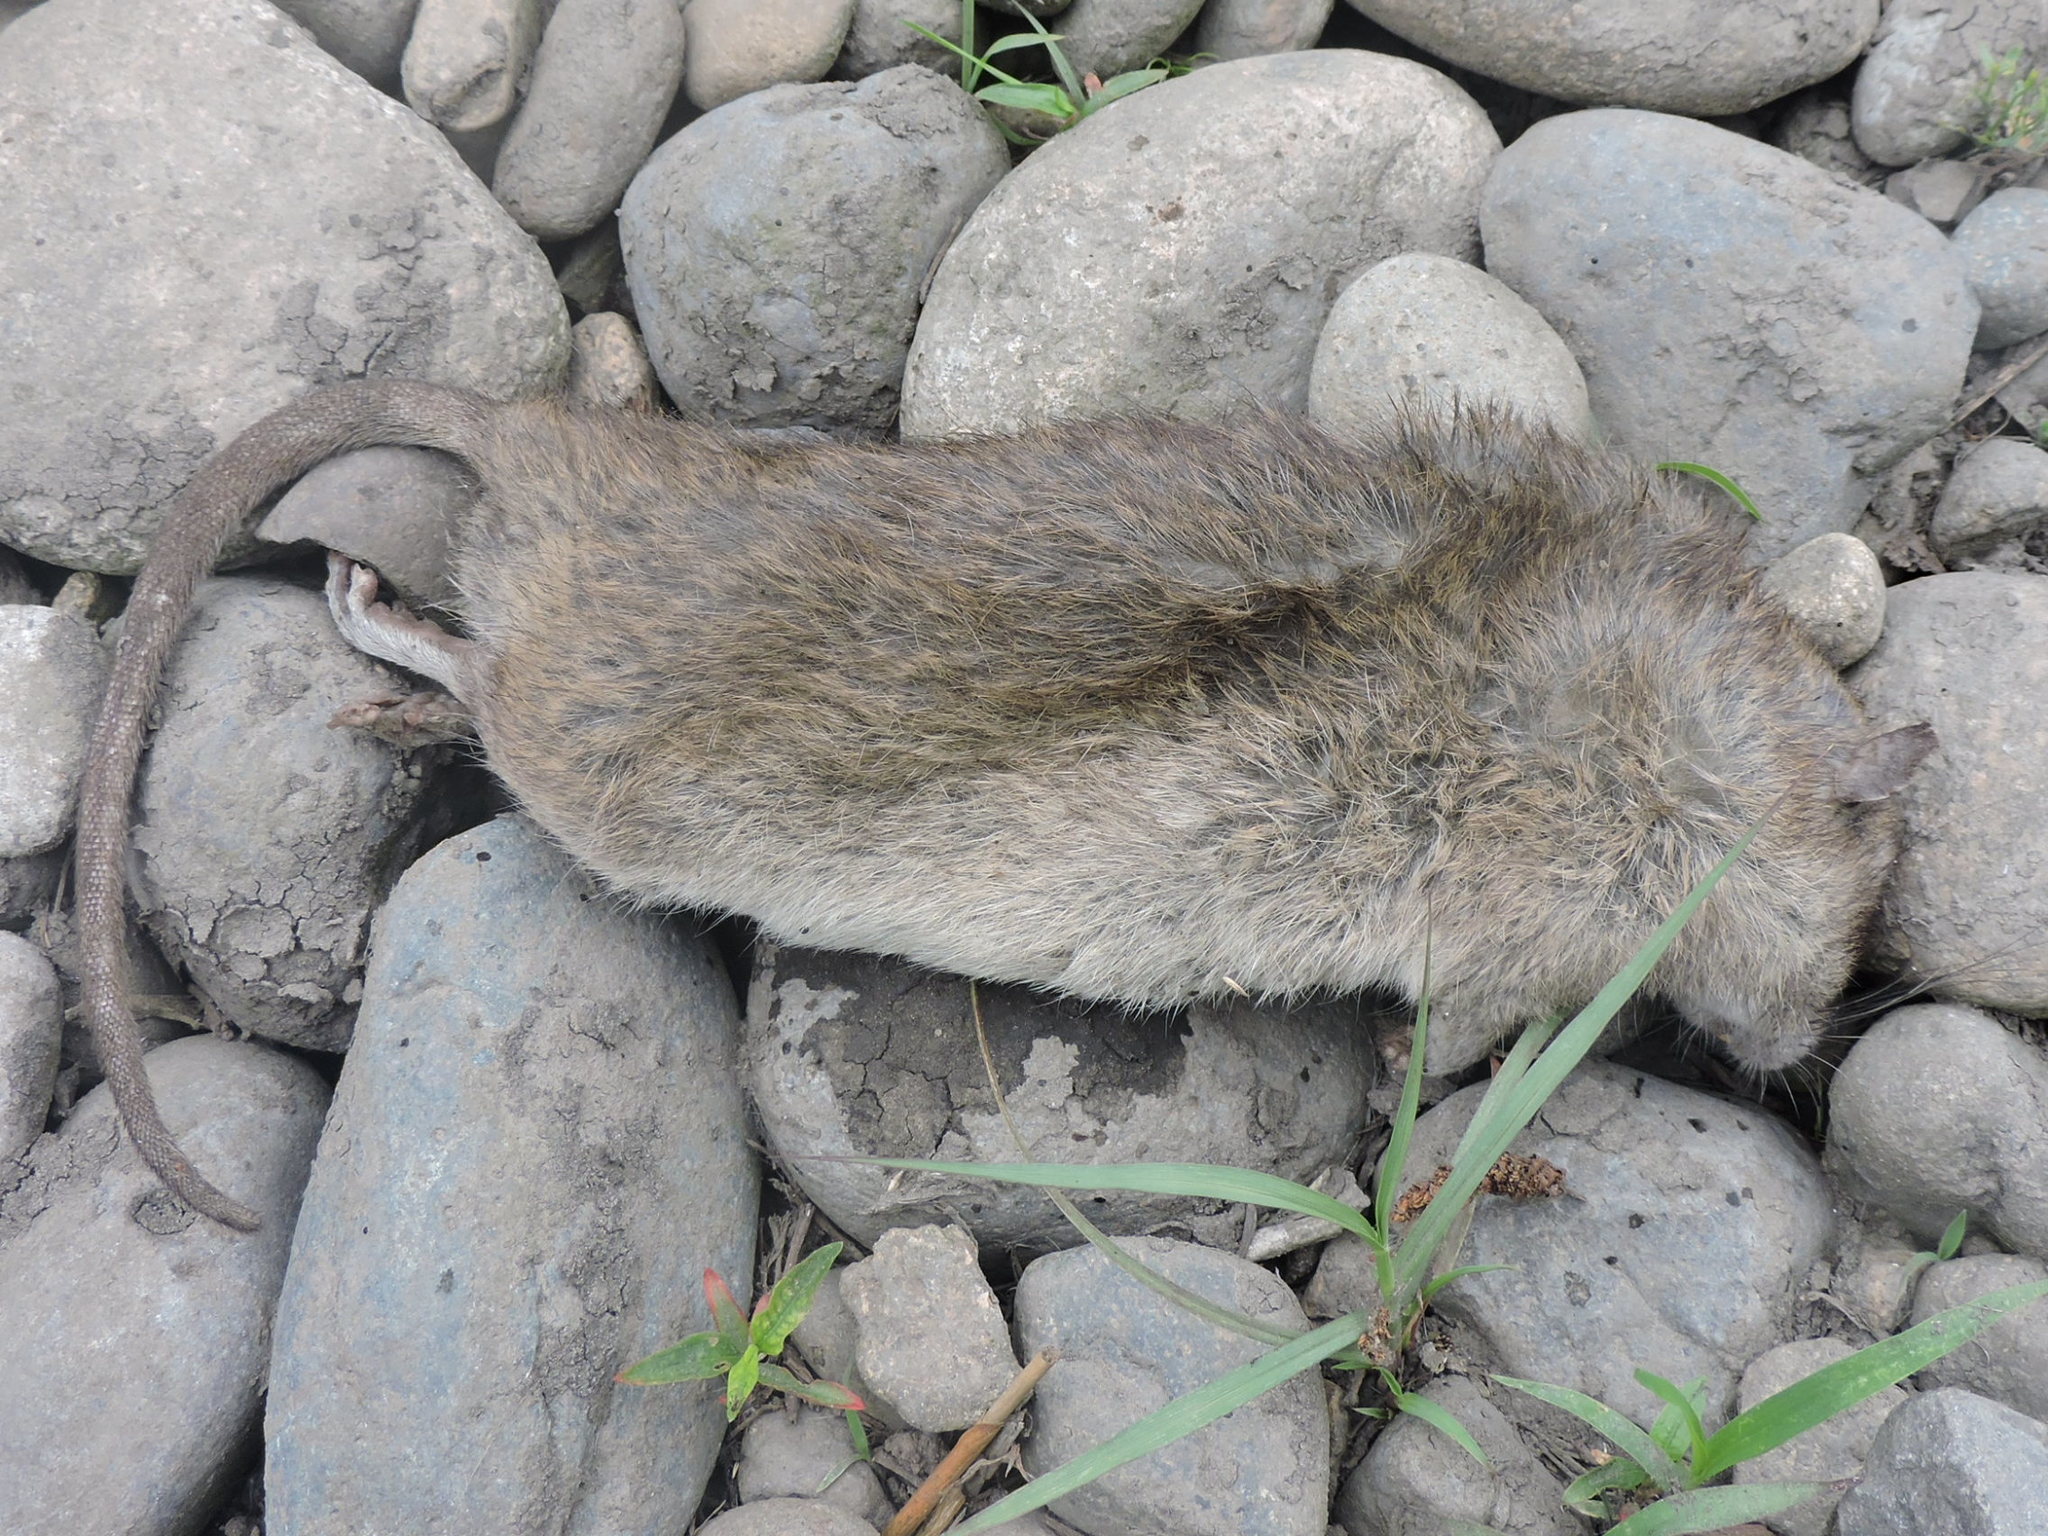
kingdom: Animalia
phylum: Chordata
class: Mammalia
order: Rodentia
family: Muridae
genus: Rattus
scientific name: Rattus norvegicus
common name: Brown rat
